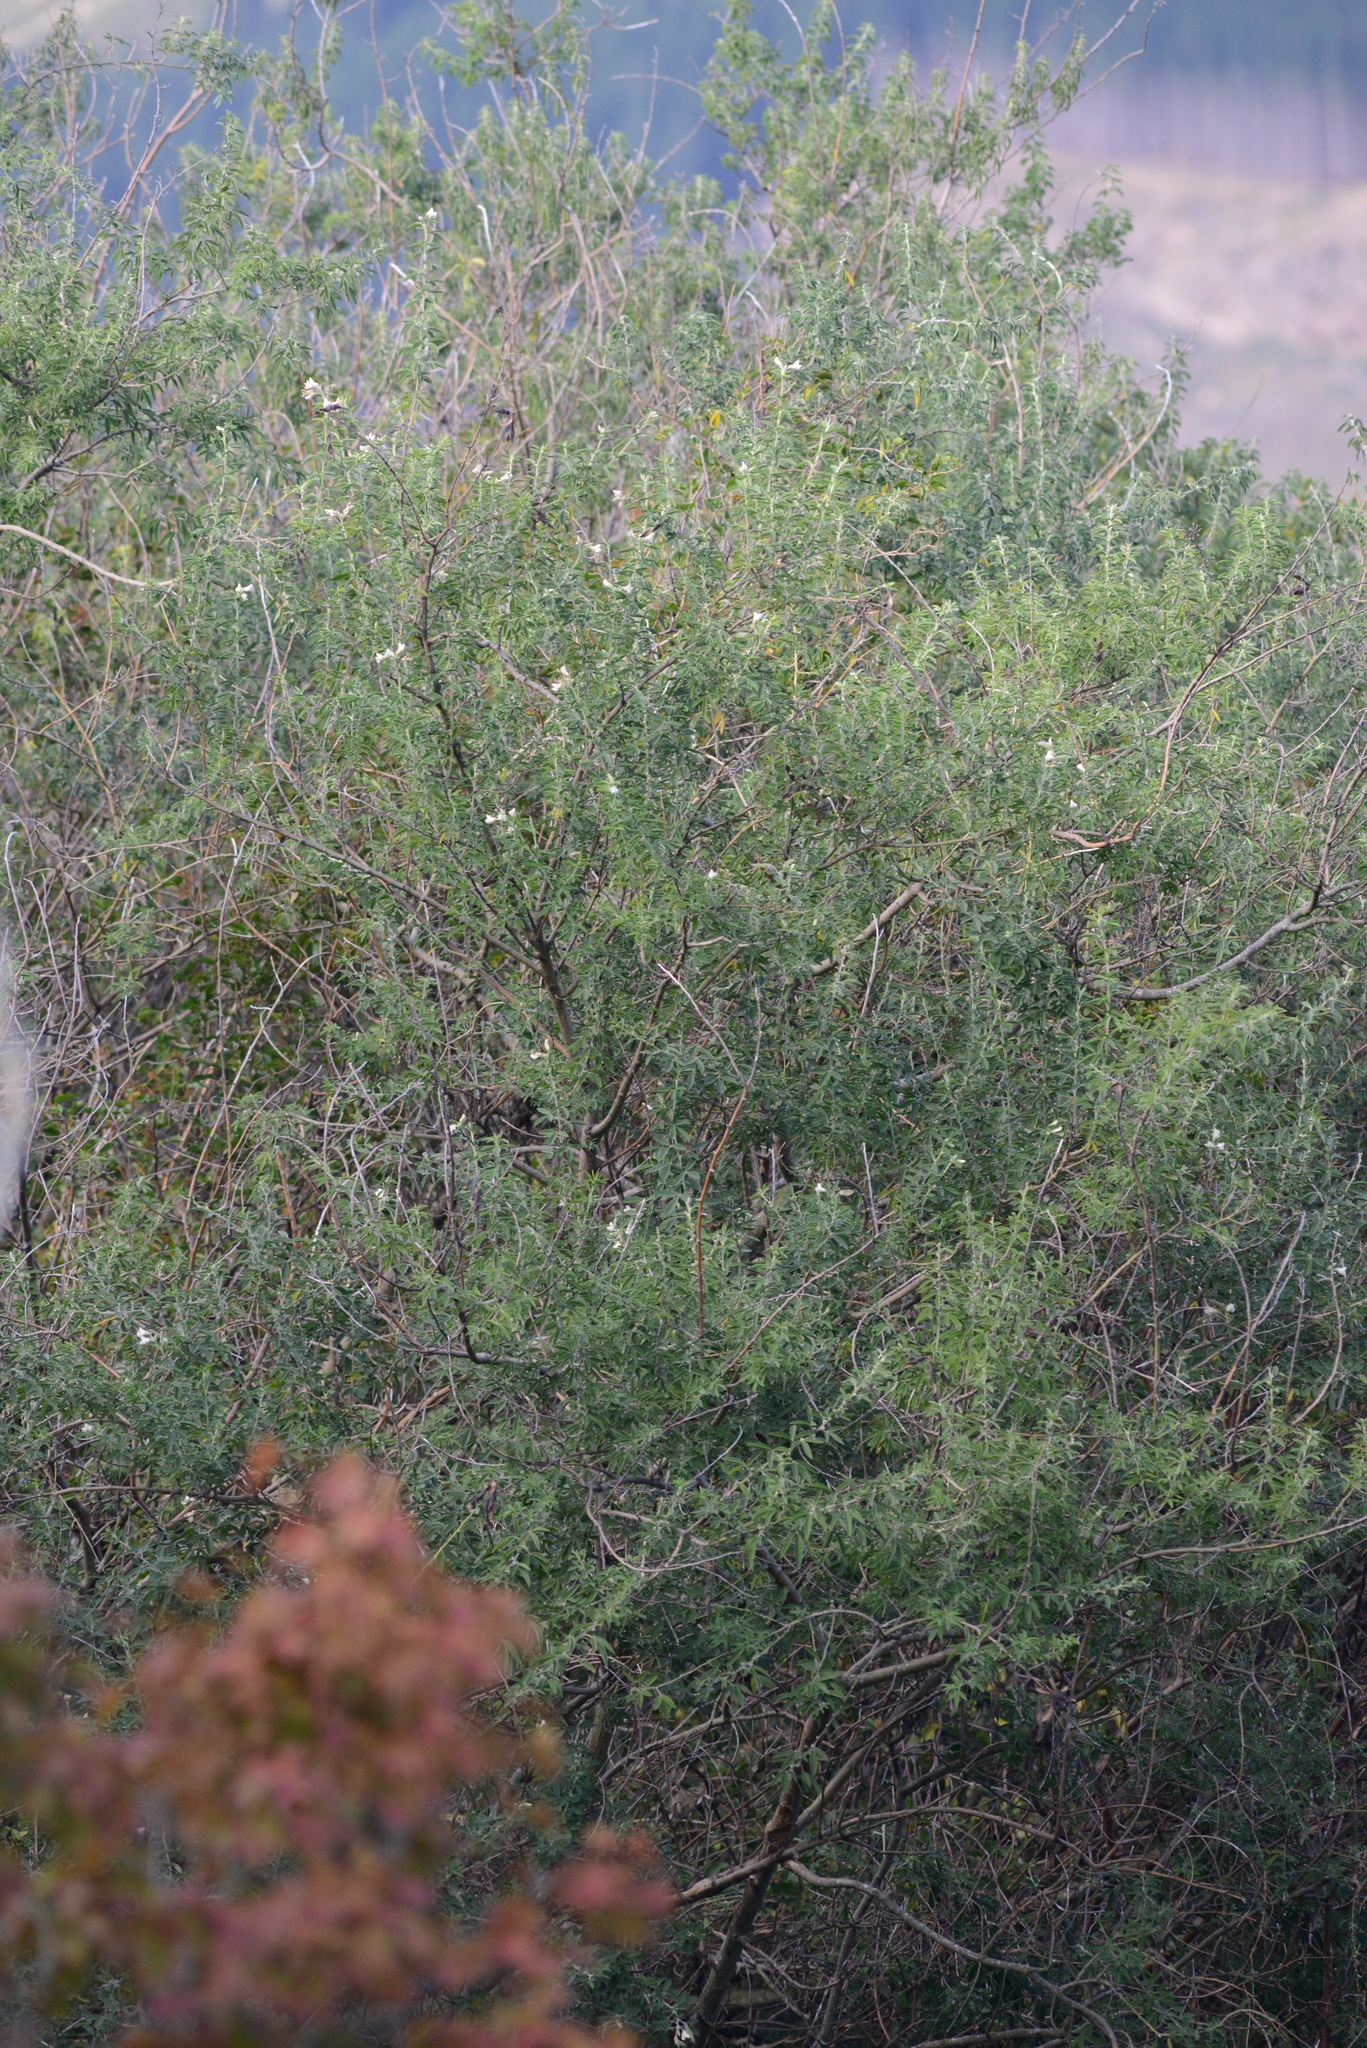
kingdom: Plantae
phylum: Tracheophyta
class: Magnoliopsida
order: Fabales
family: Fabaceae
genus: Chamaecytisus
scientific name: Chamaecytisus prolifer
